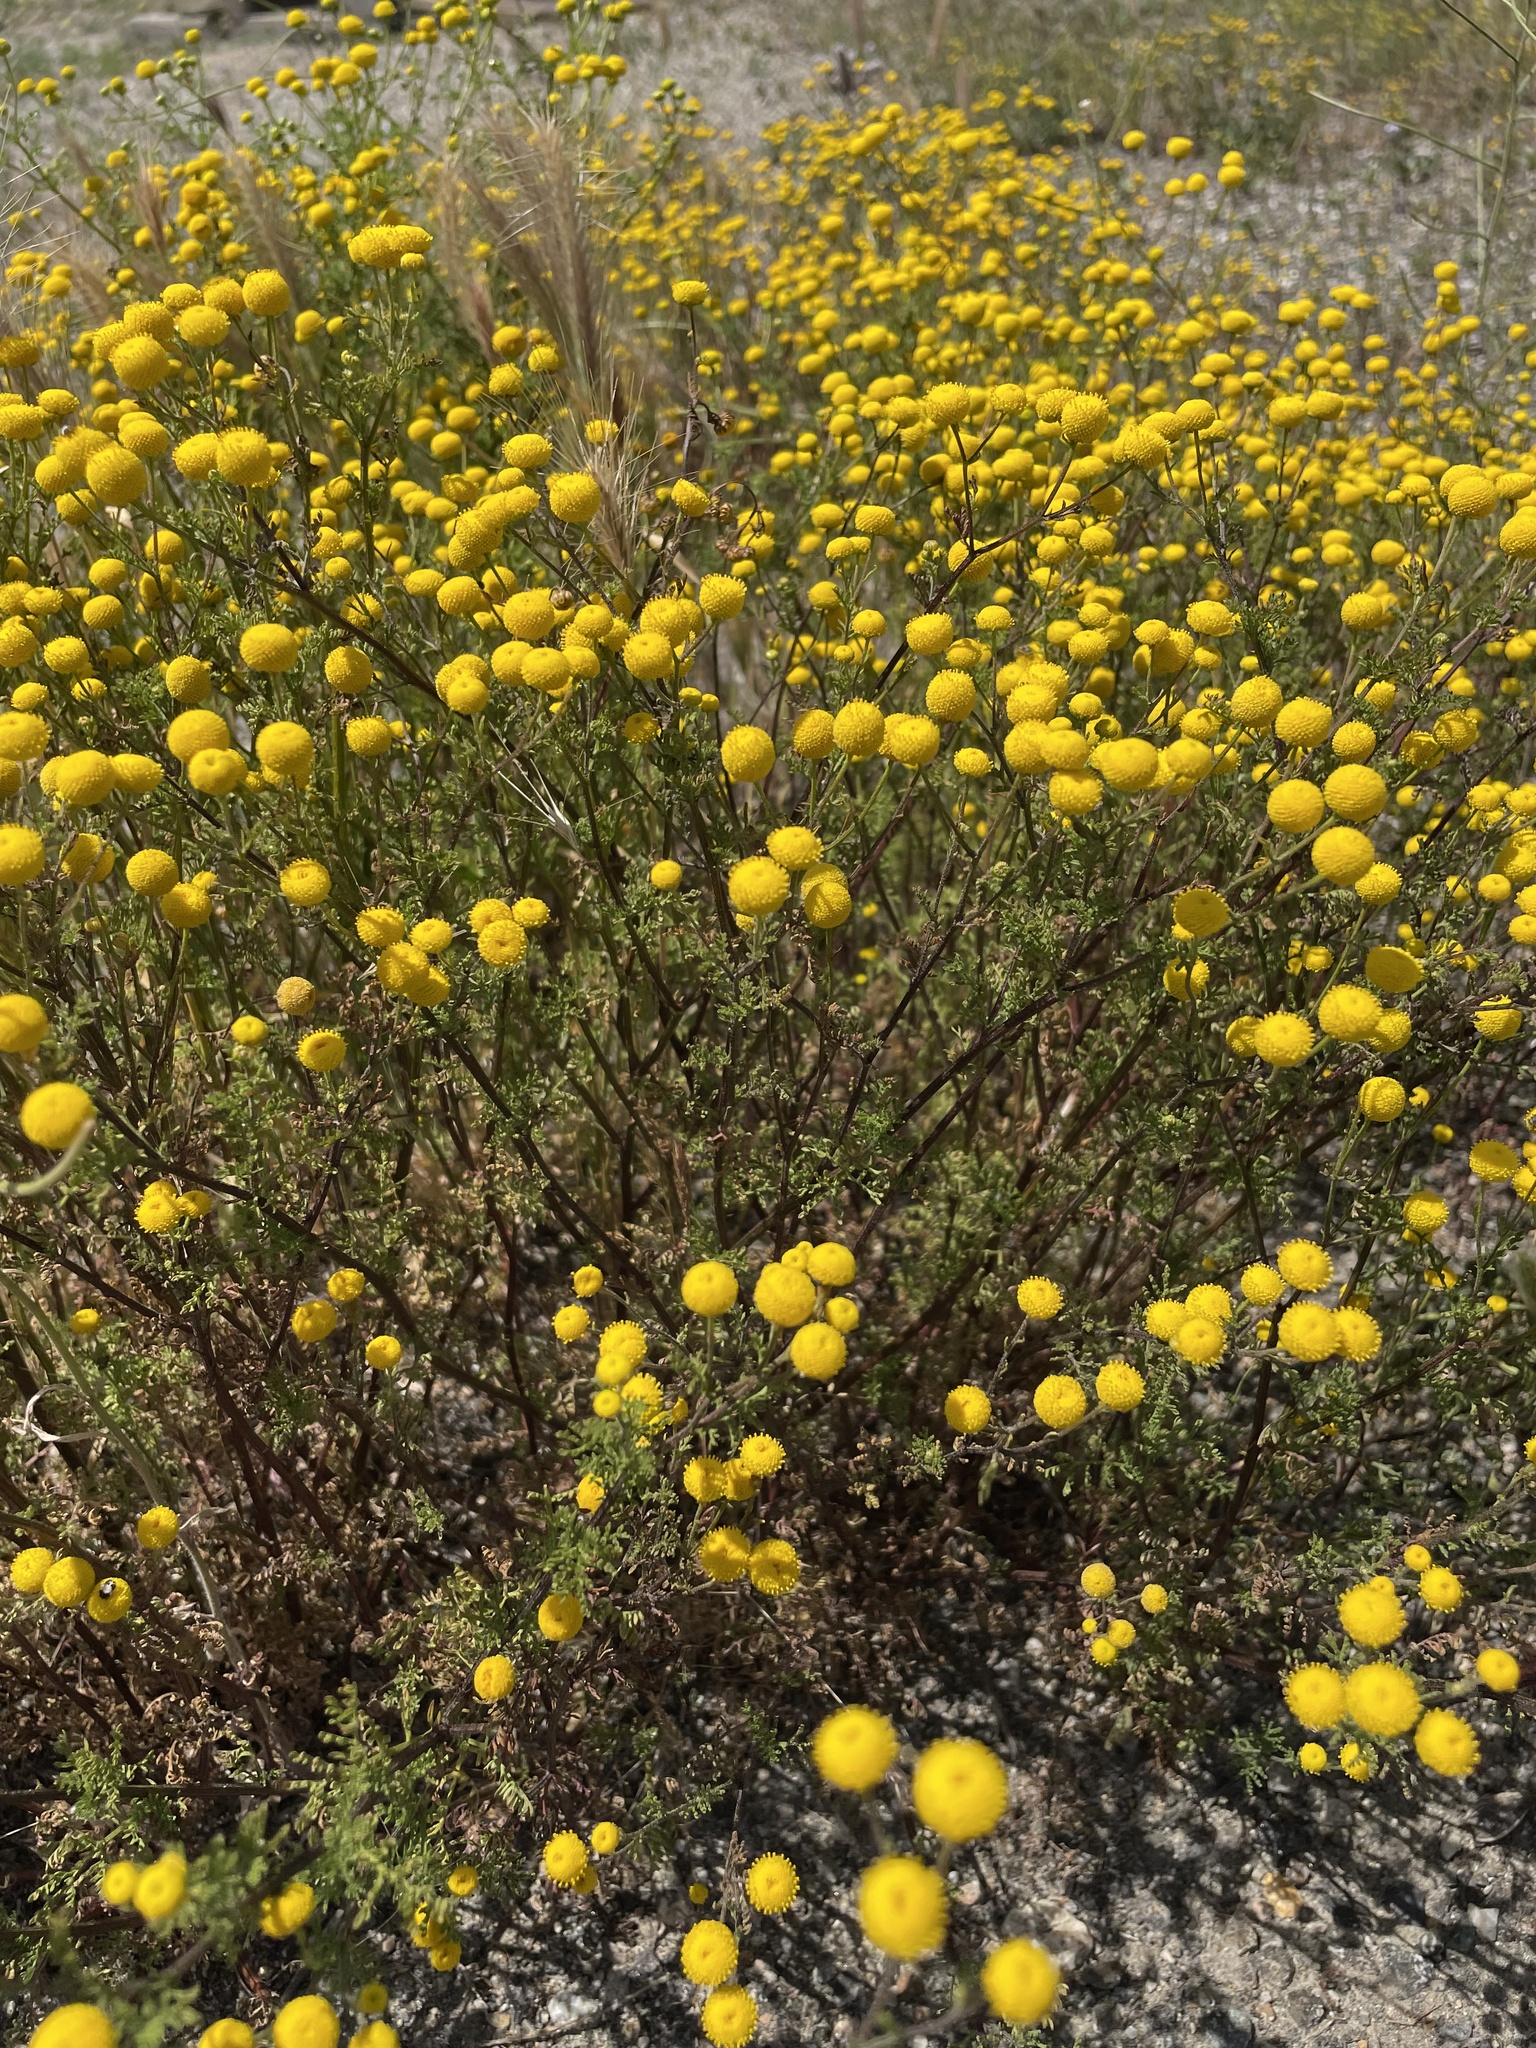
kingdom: Plantae
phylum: Tracheophyta
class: Magnoliopsida
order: Asterales
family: Asteraceae
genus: Oncosiphon
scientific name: Oncosiphon pilulifer
